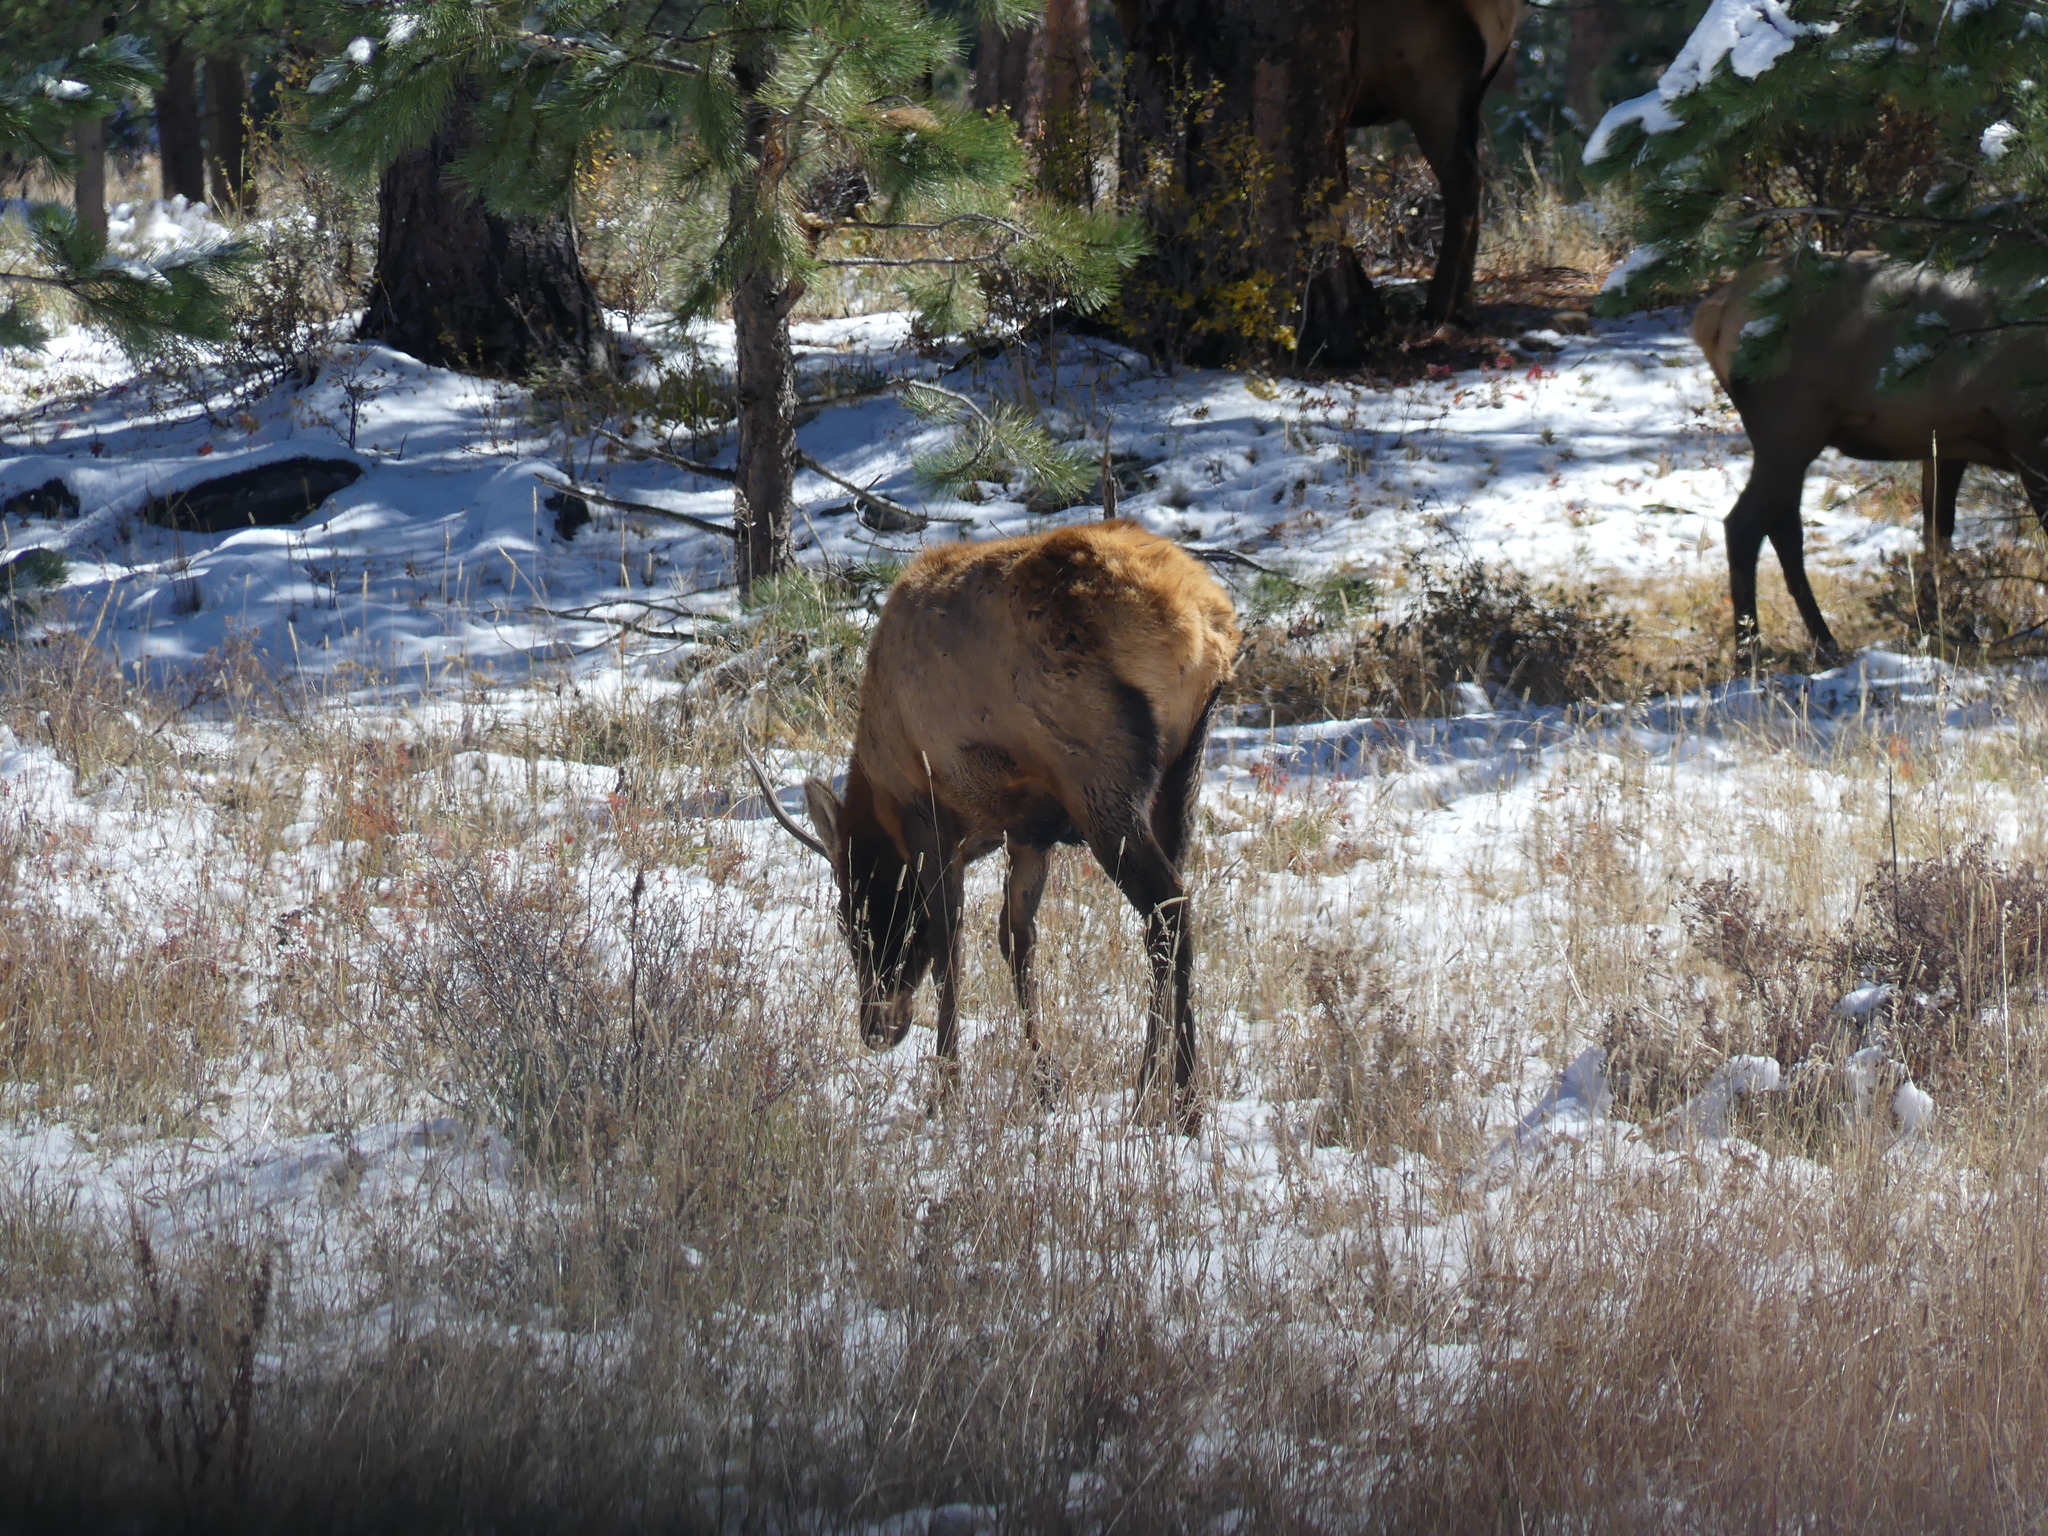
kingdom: Animalia
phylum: Chordata
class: Mammalia
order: Artiodactyla
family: Cervidae
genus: Cervus
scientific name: Cervus elaphus
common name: Red deer
